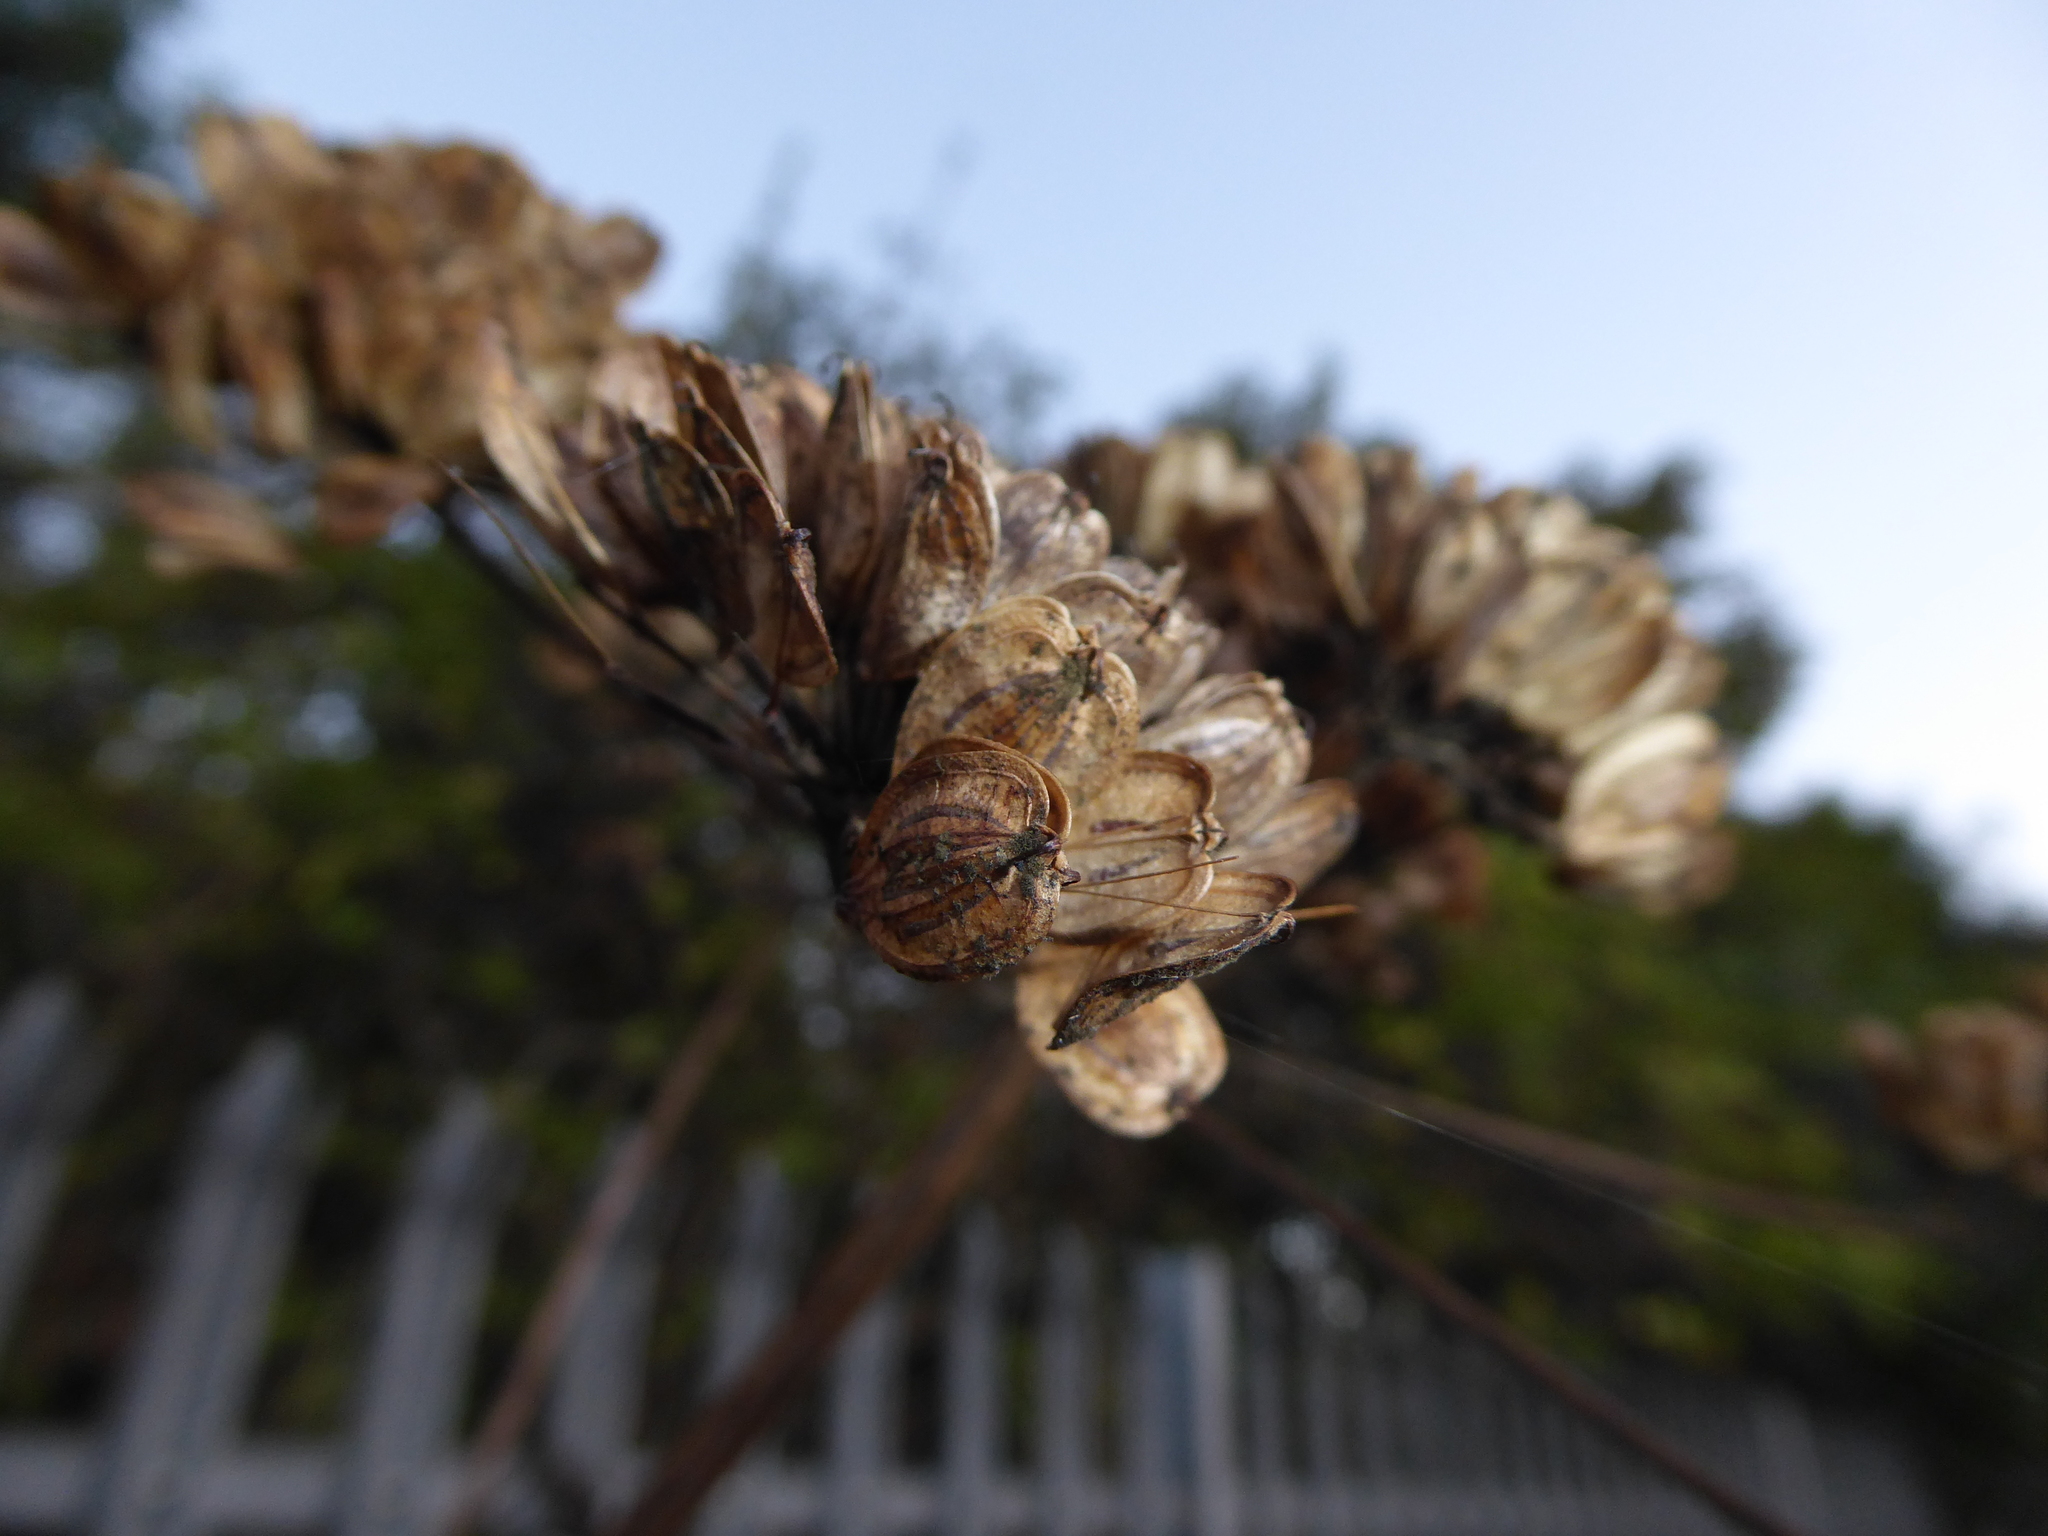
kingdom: Plantae
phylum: Tracheophyta
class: Magnoliopsida
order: Apiales
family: Apiaceae
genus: Heracleum
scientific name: Heracleum sphondylium
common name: Hogweed
